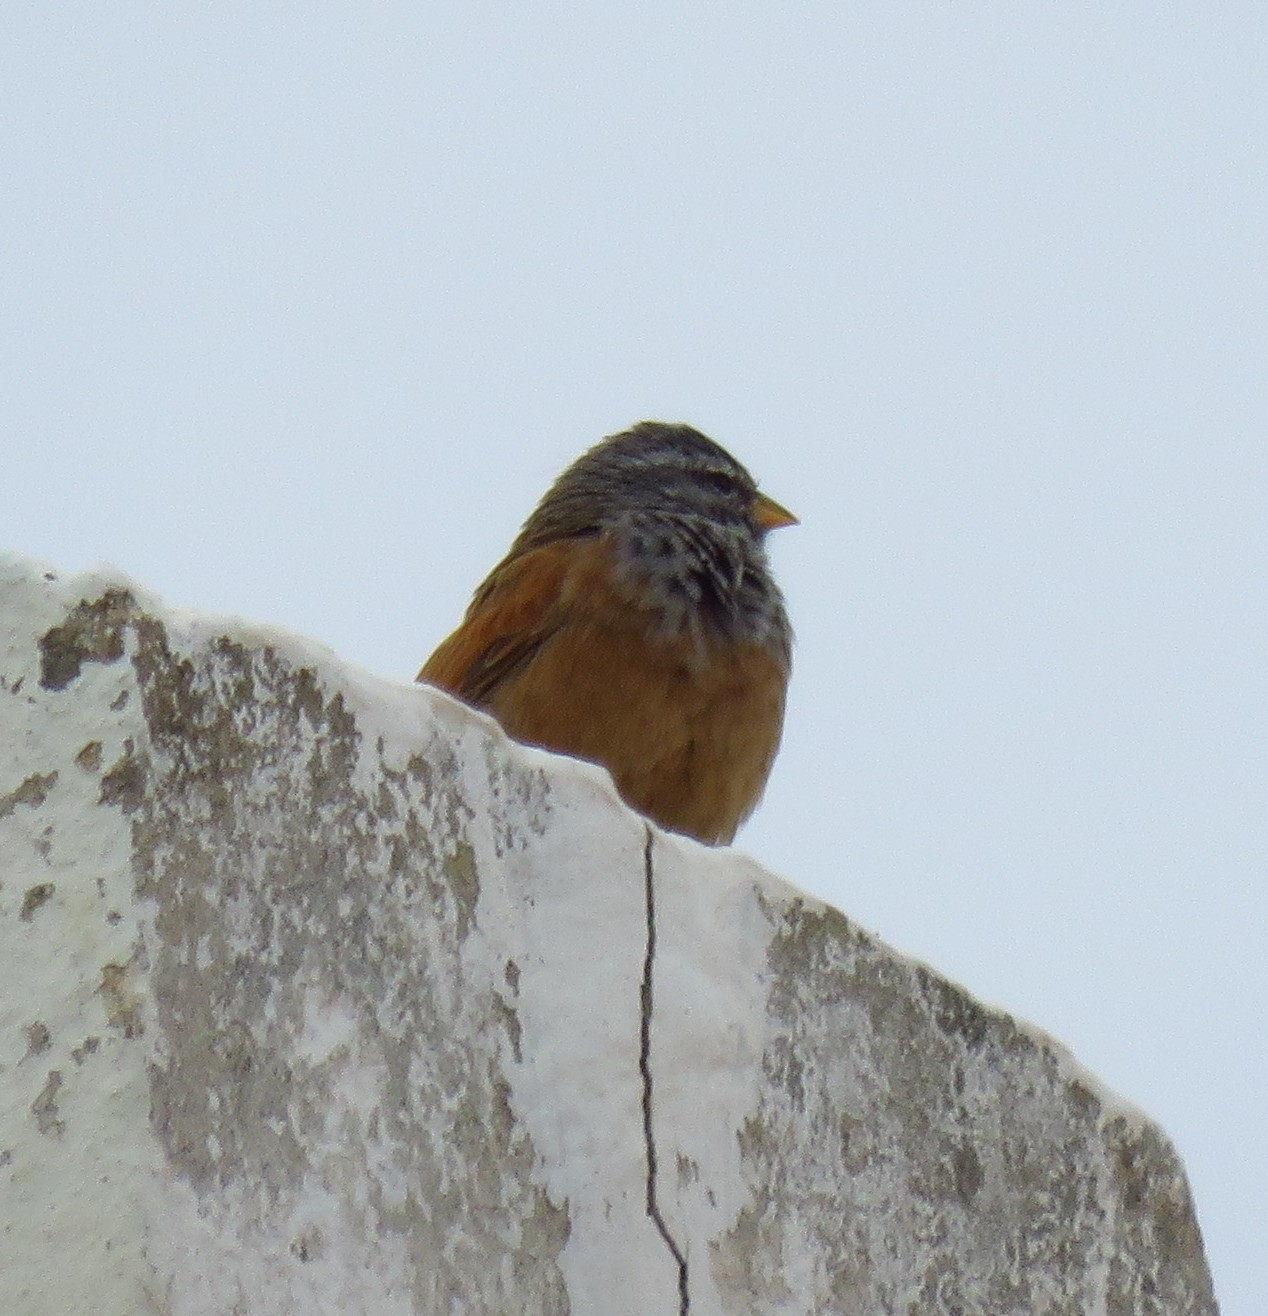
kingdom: Animalia
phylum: Chordata
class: Aves
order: Passeriformes
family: Emberizidae
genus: Emberiza
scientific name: Emberiza sahari
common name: House bunting
